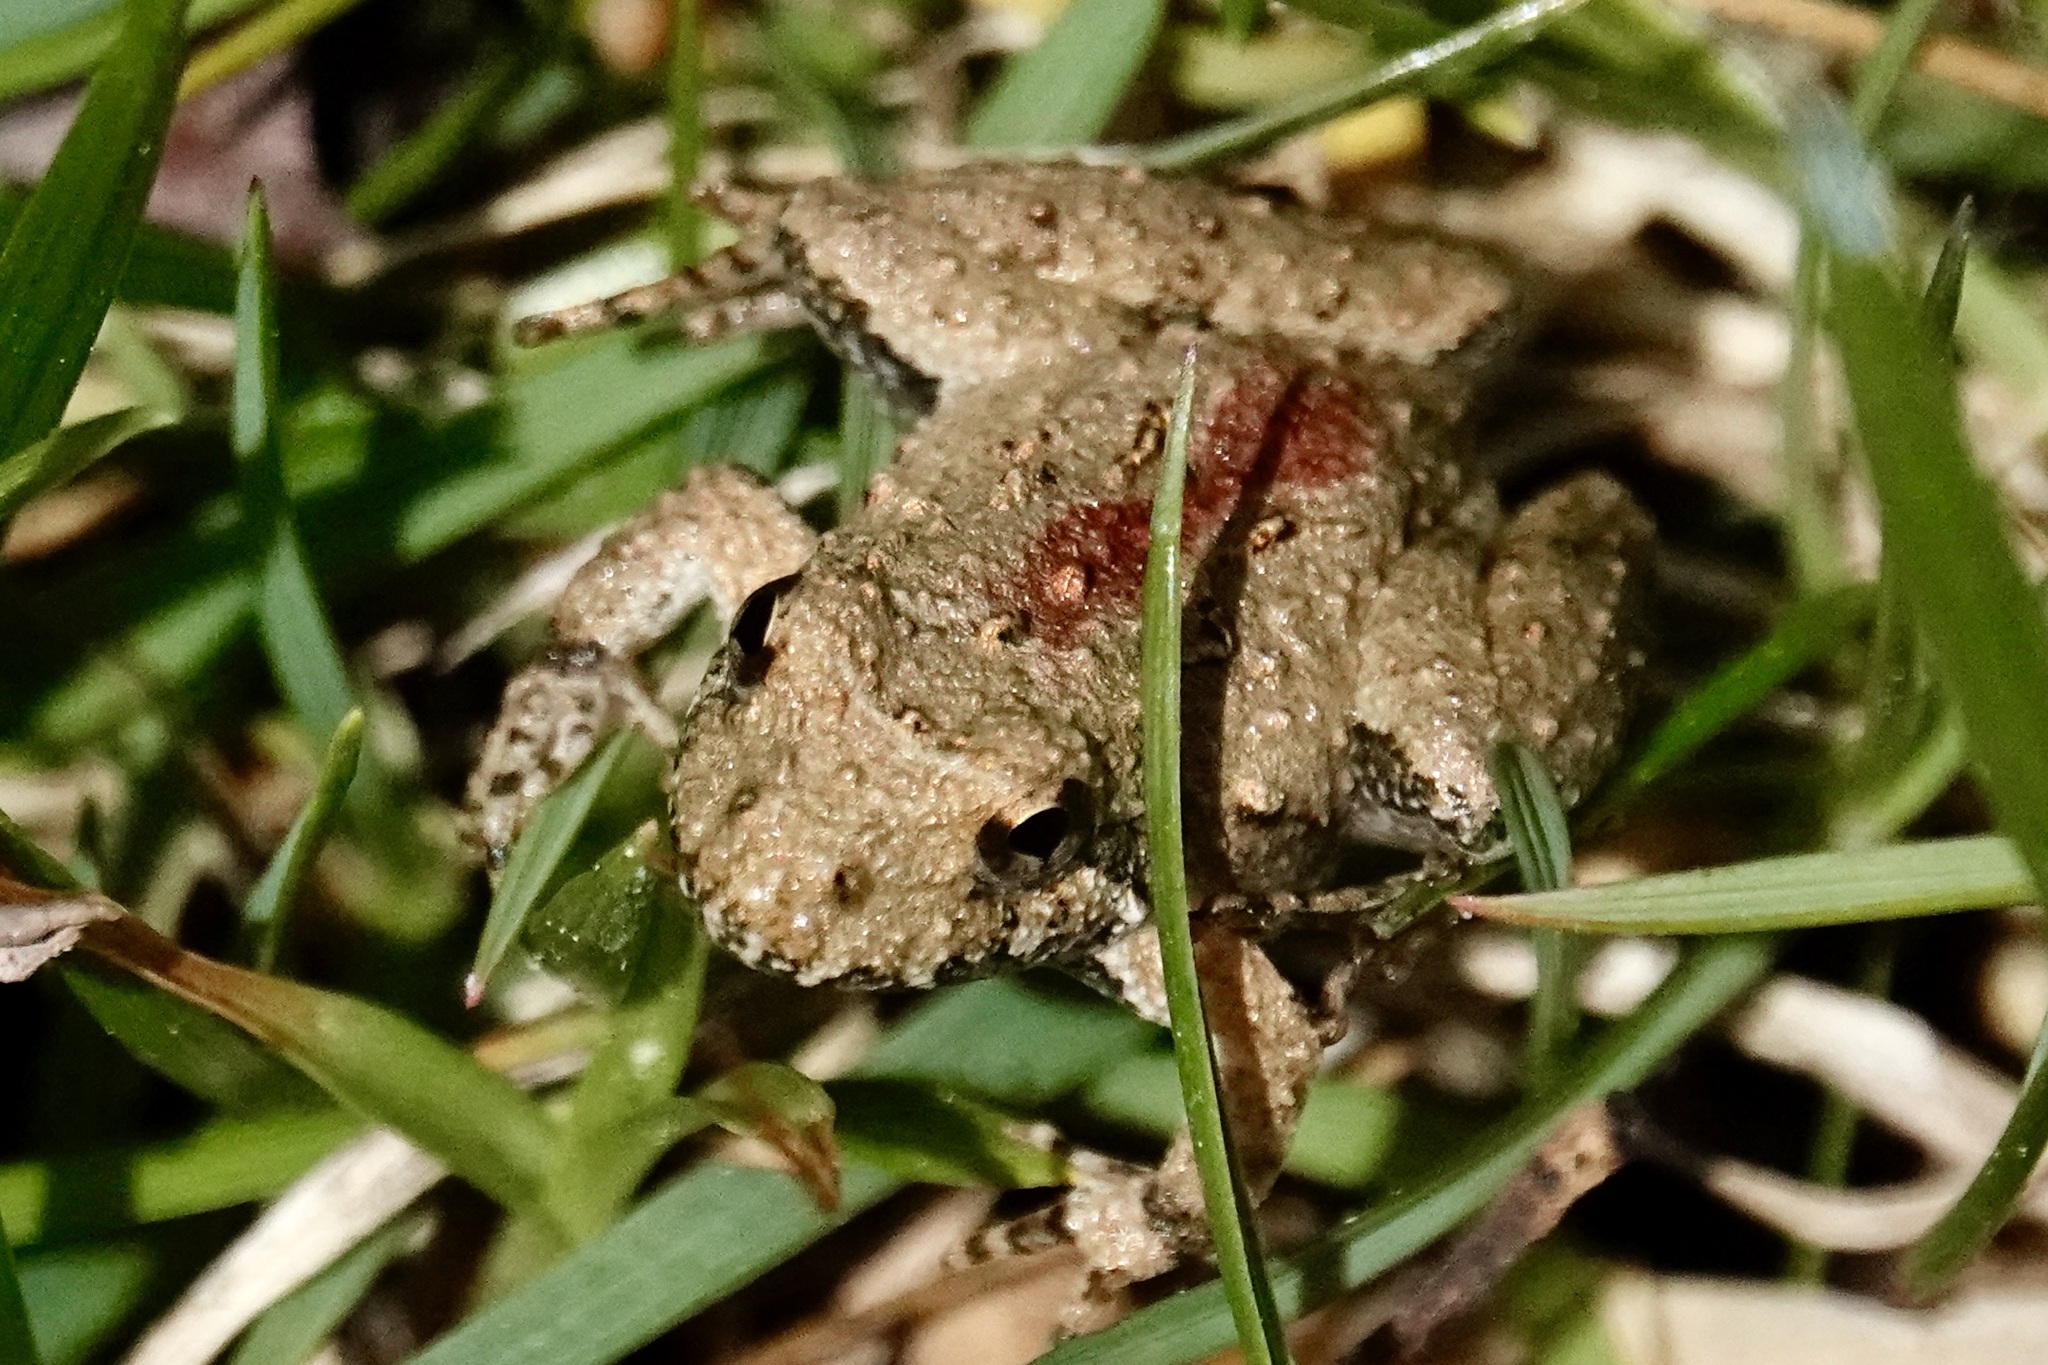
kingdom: Animalia
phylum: Chordata
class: Amphibia
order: Anura
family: Hylidae
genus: Acris
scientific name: Acris crepitans
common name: Northern cricket frog
